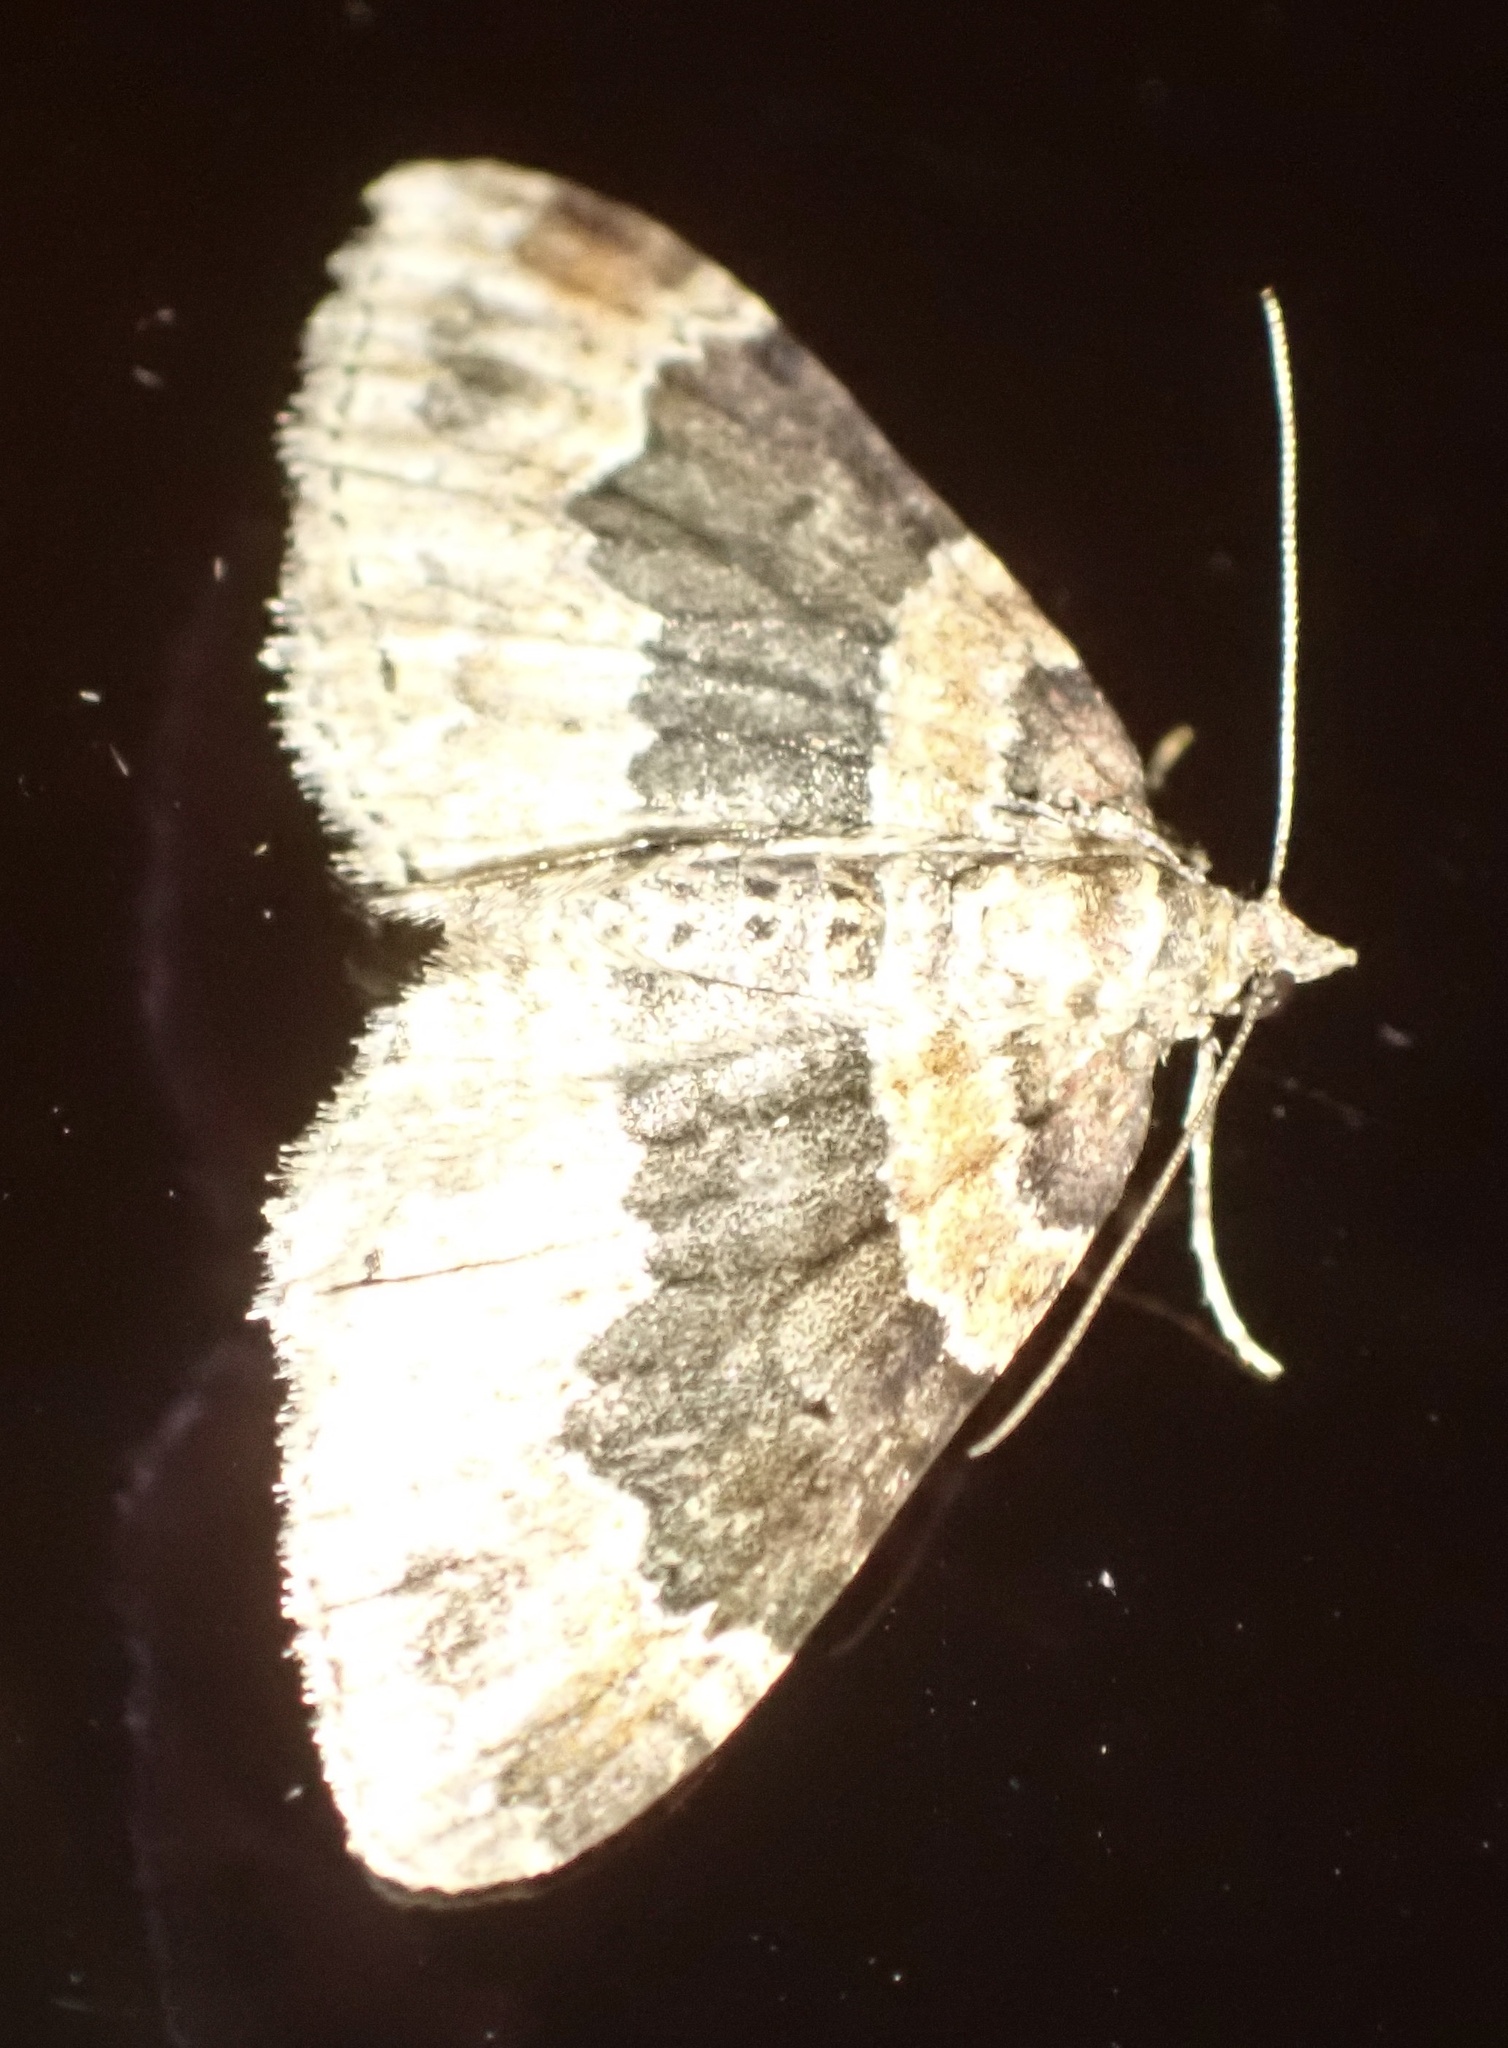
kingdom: Animalia
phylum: Arthropoda
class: Insecta
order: Lepidoptera
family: Geometridae
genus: Xanthorhoe
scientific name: Xanthorhoe ferrugata
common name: Dark-barred twin-spot carpet
